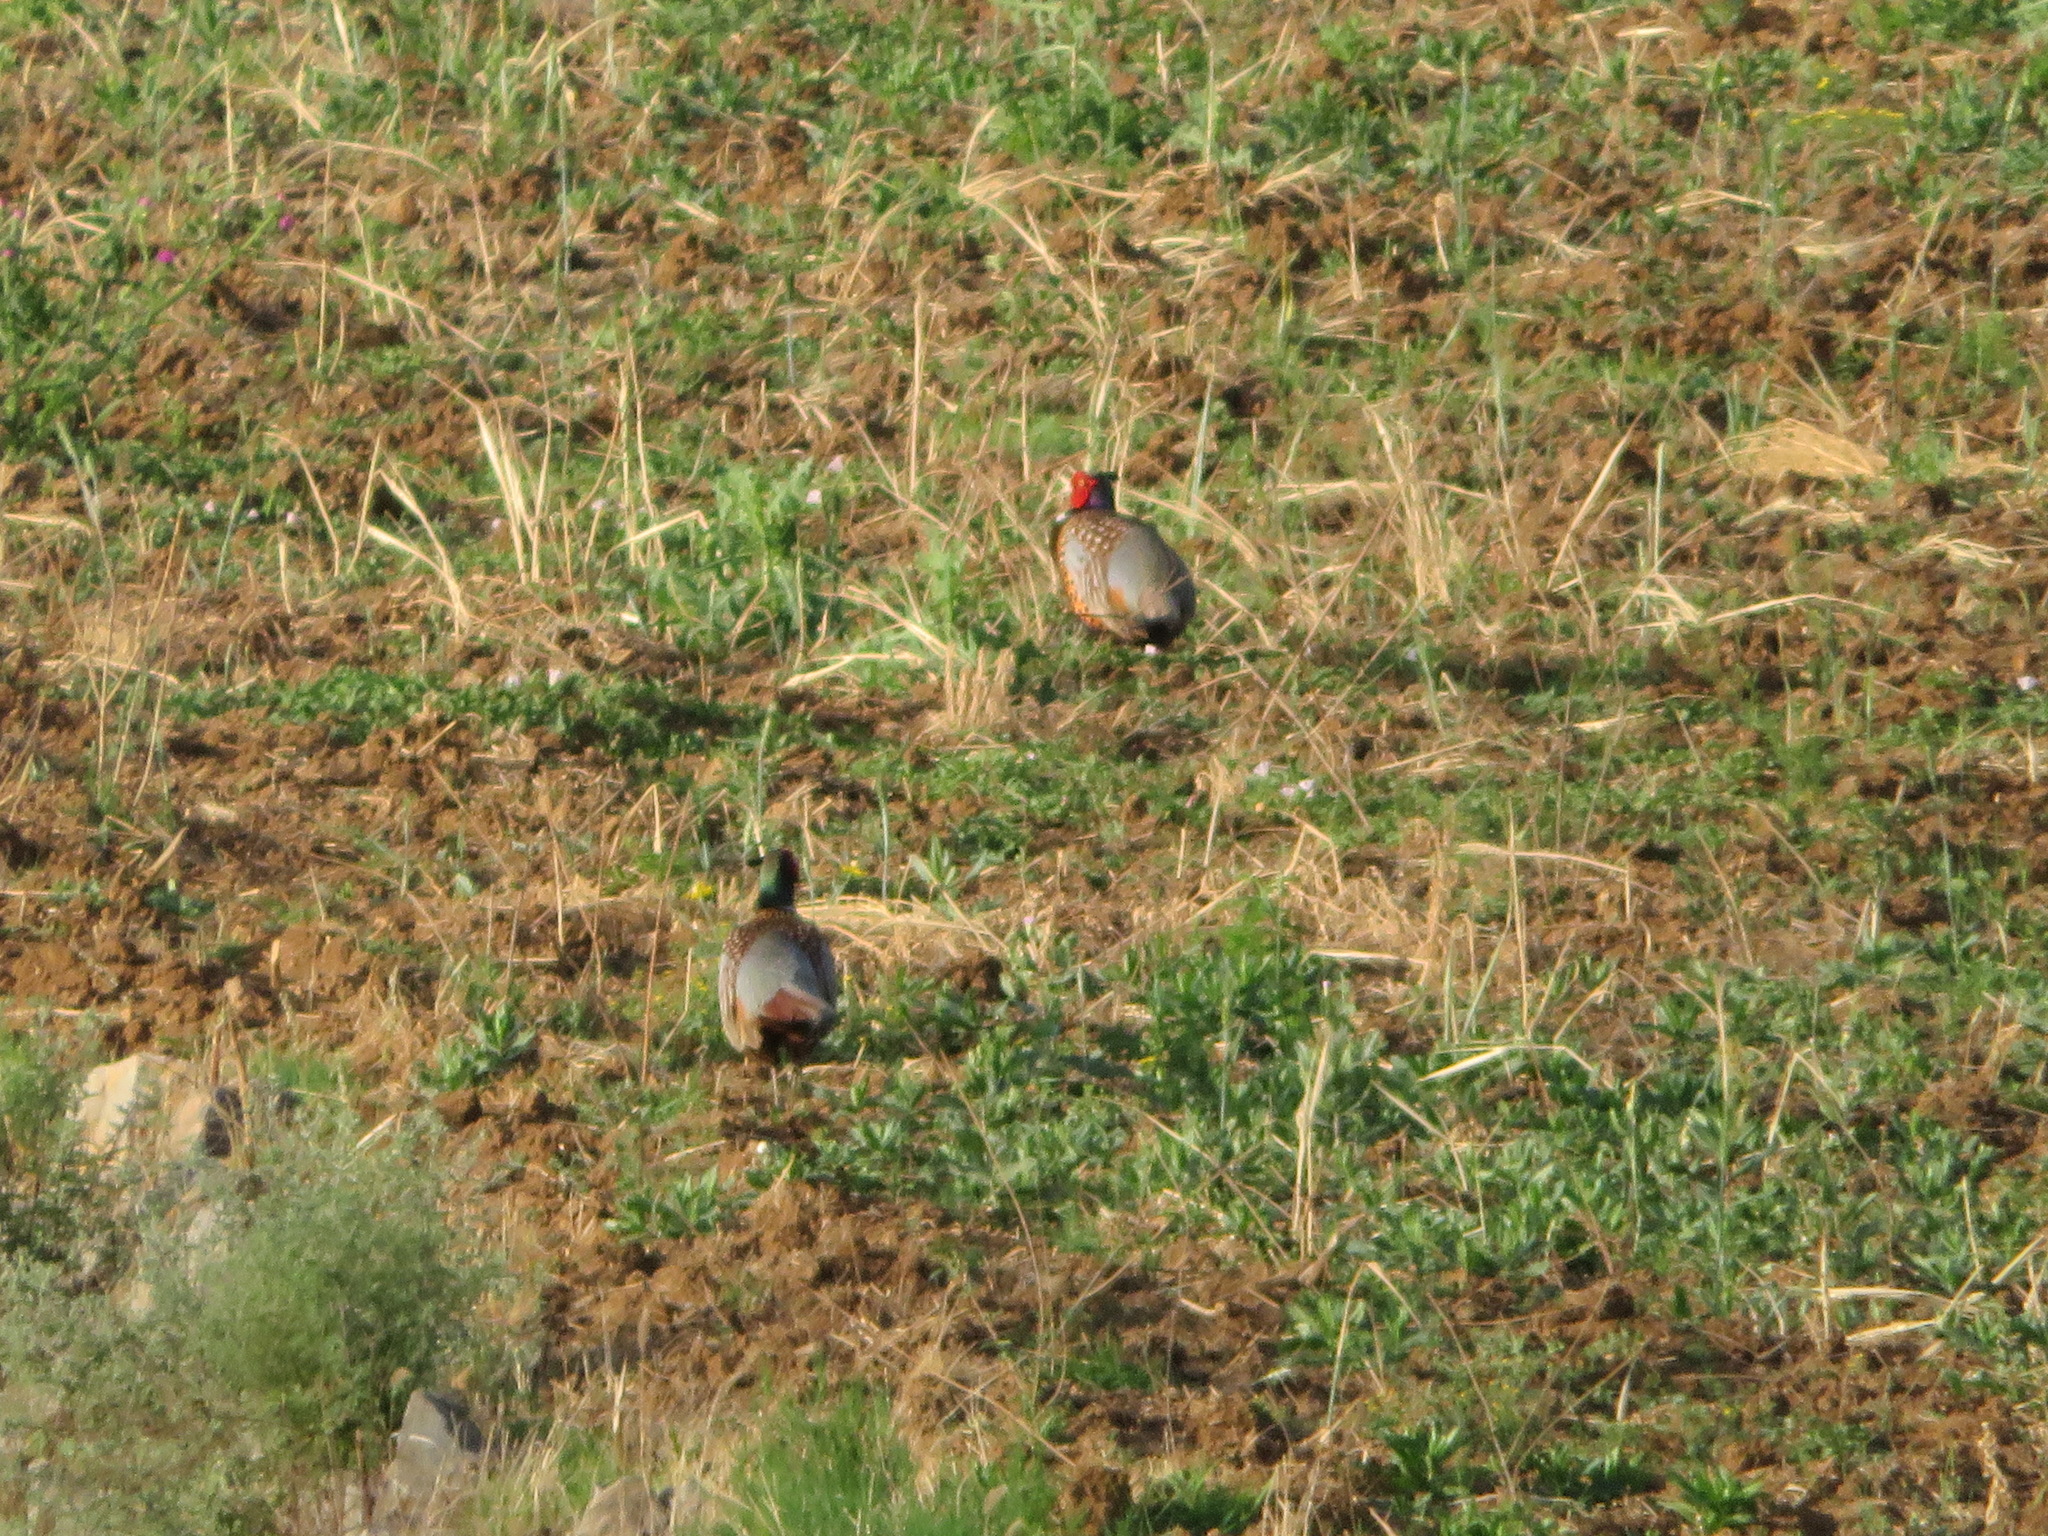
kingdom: Animalia
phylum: Chordata
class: Aves
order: Galliformes
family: Phasianidae
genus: Phasianus
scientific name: Phasianus colchicus
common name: Common pheasant
